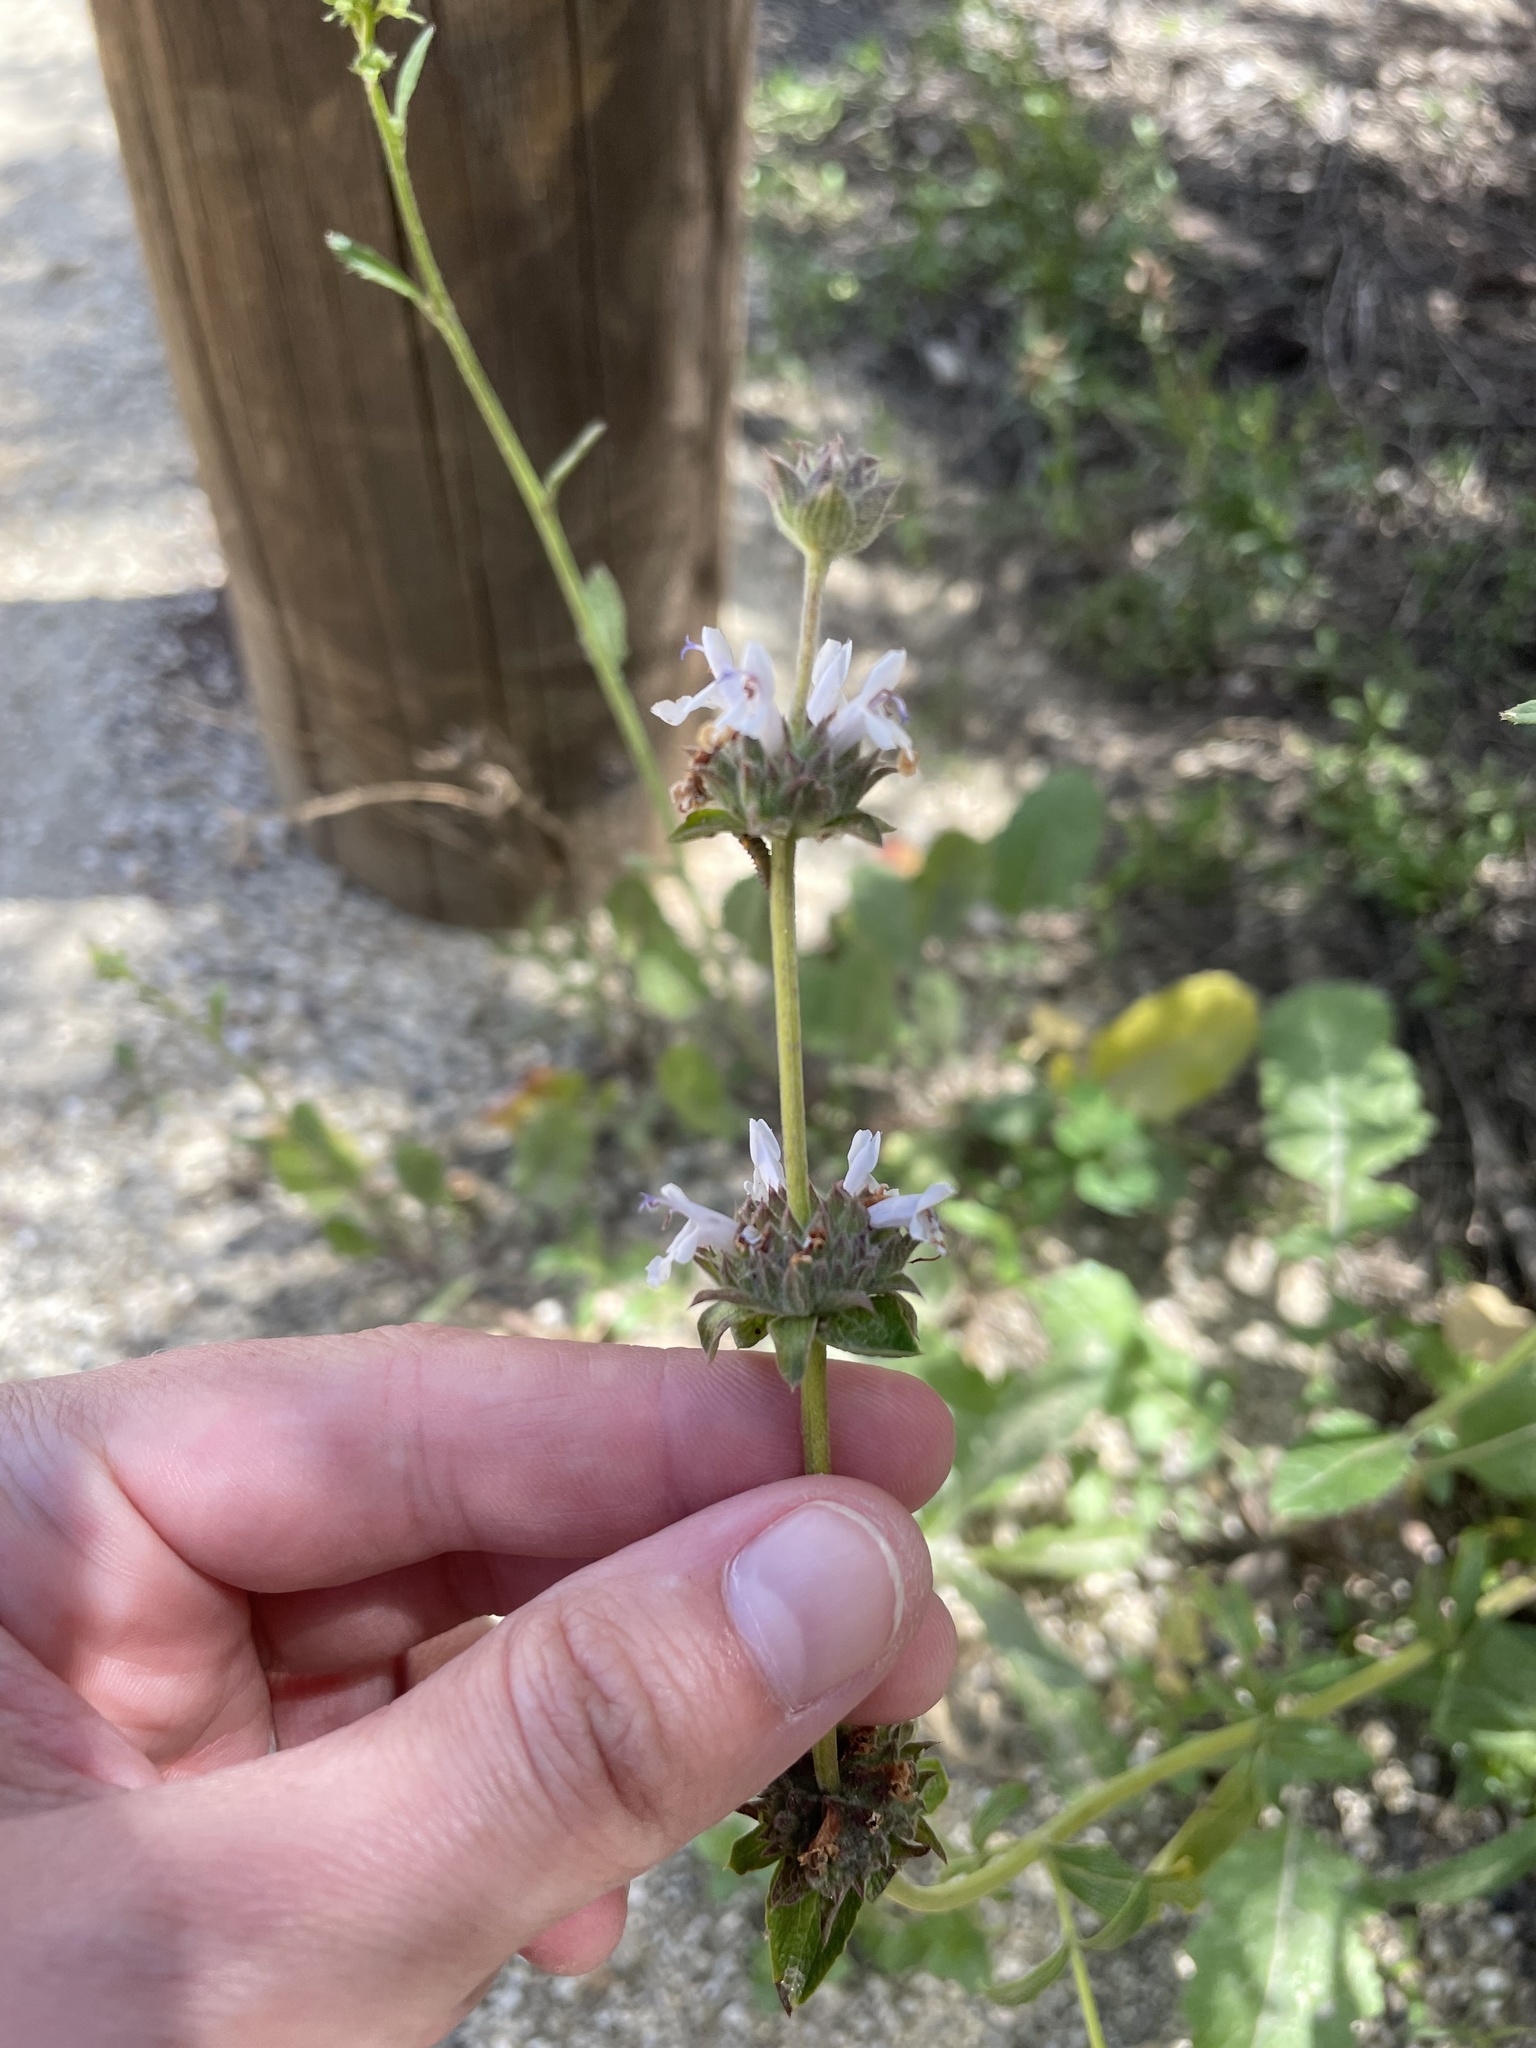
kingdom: Plantae
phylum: Tracheophyta
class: Magnoliopsida
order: Lamiales
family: Lamiaceae
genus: Salvia
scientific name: Salvia mellifera
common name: Black sage
